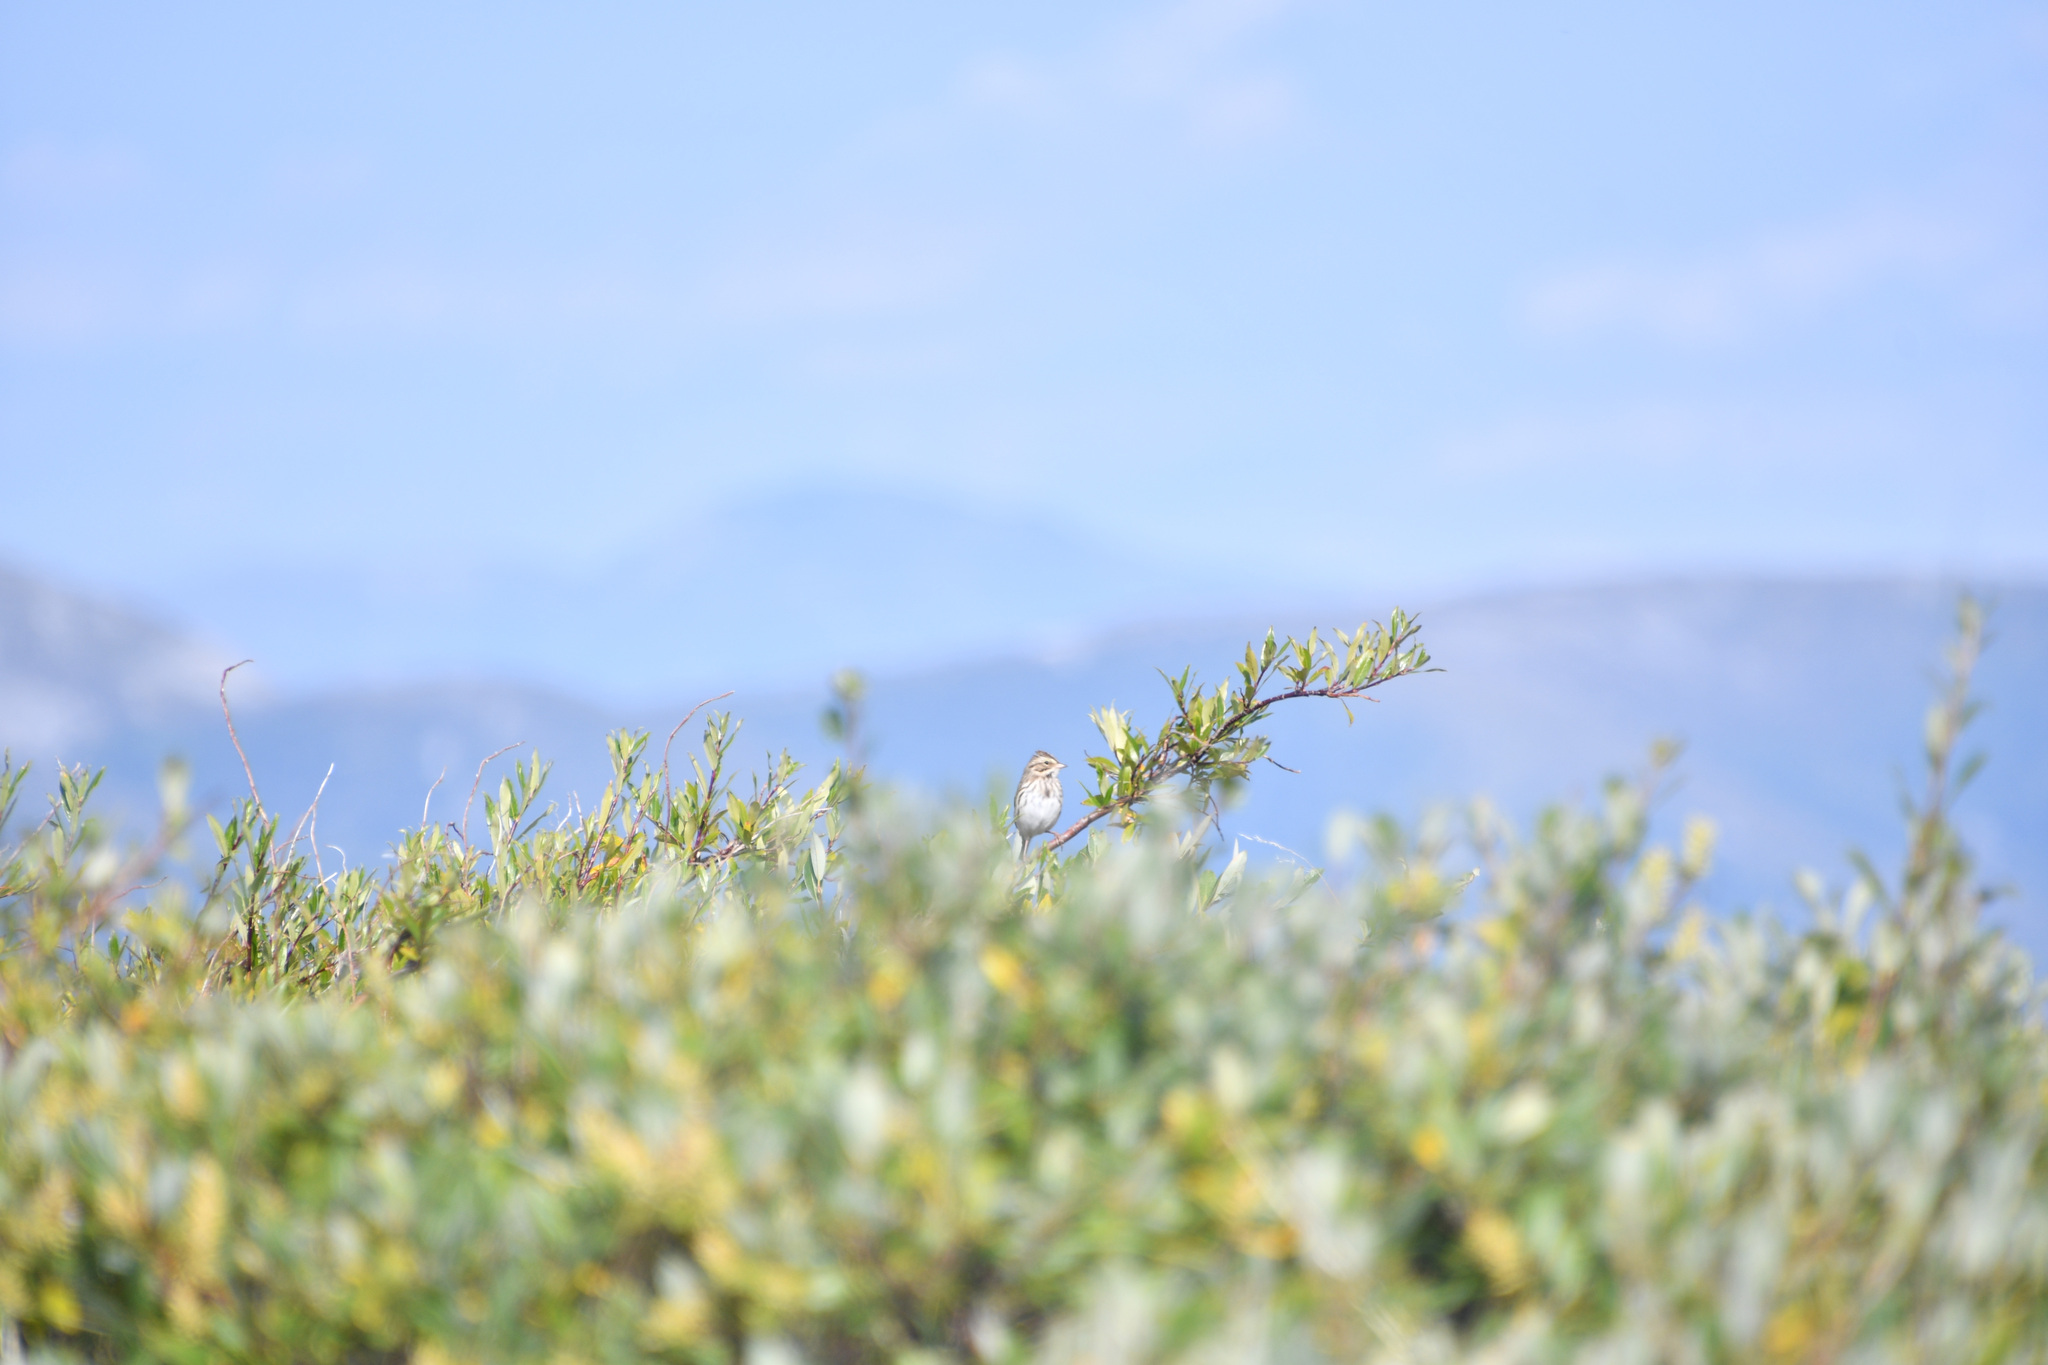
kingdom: Animalia
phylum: Chordata
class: Aves
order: Passeriformes
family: Passerellidae
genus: Passerculus
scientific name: Passerculus sandwichensis
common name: Savannah sparrow
